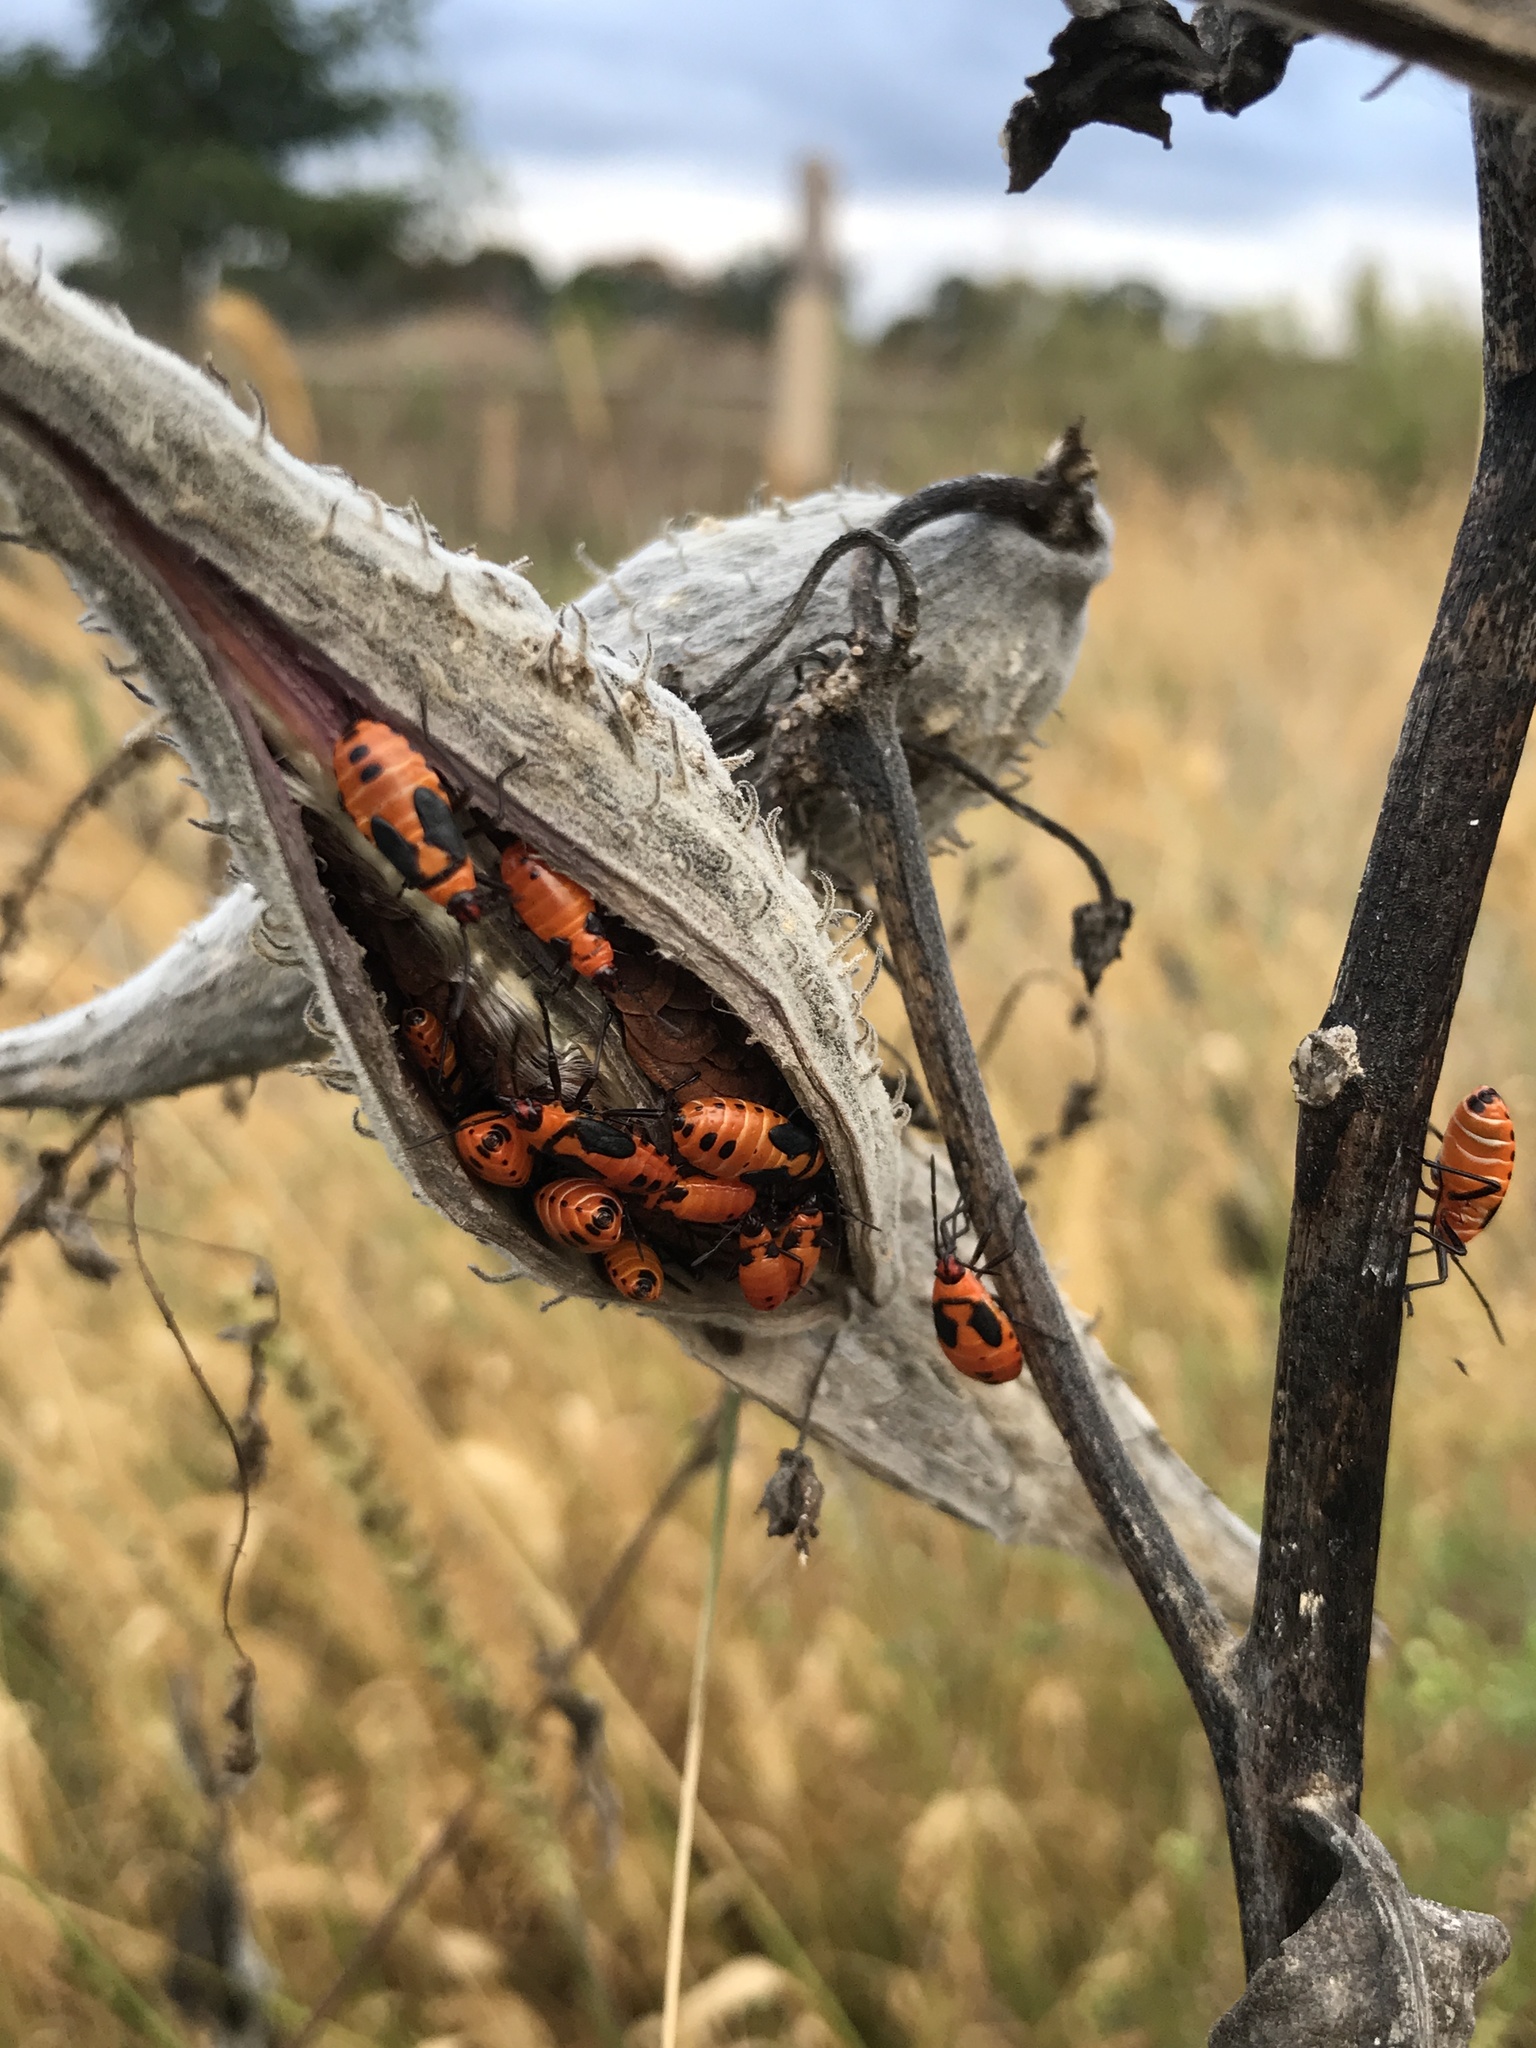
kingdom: Animalia
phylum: Arthropoda
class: Insecta
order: Hemiptera
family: Lygaeidae
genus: Oncopeltus
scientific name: Oncopeltus fasciatus
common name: Large milkweed bug
